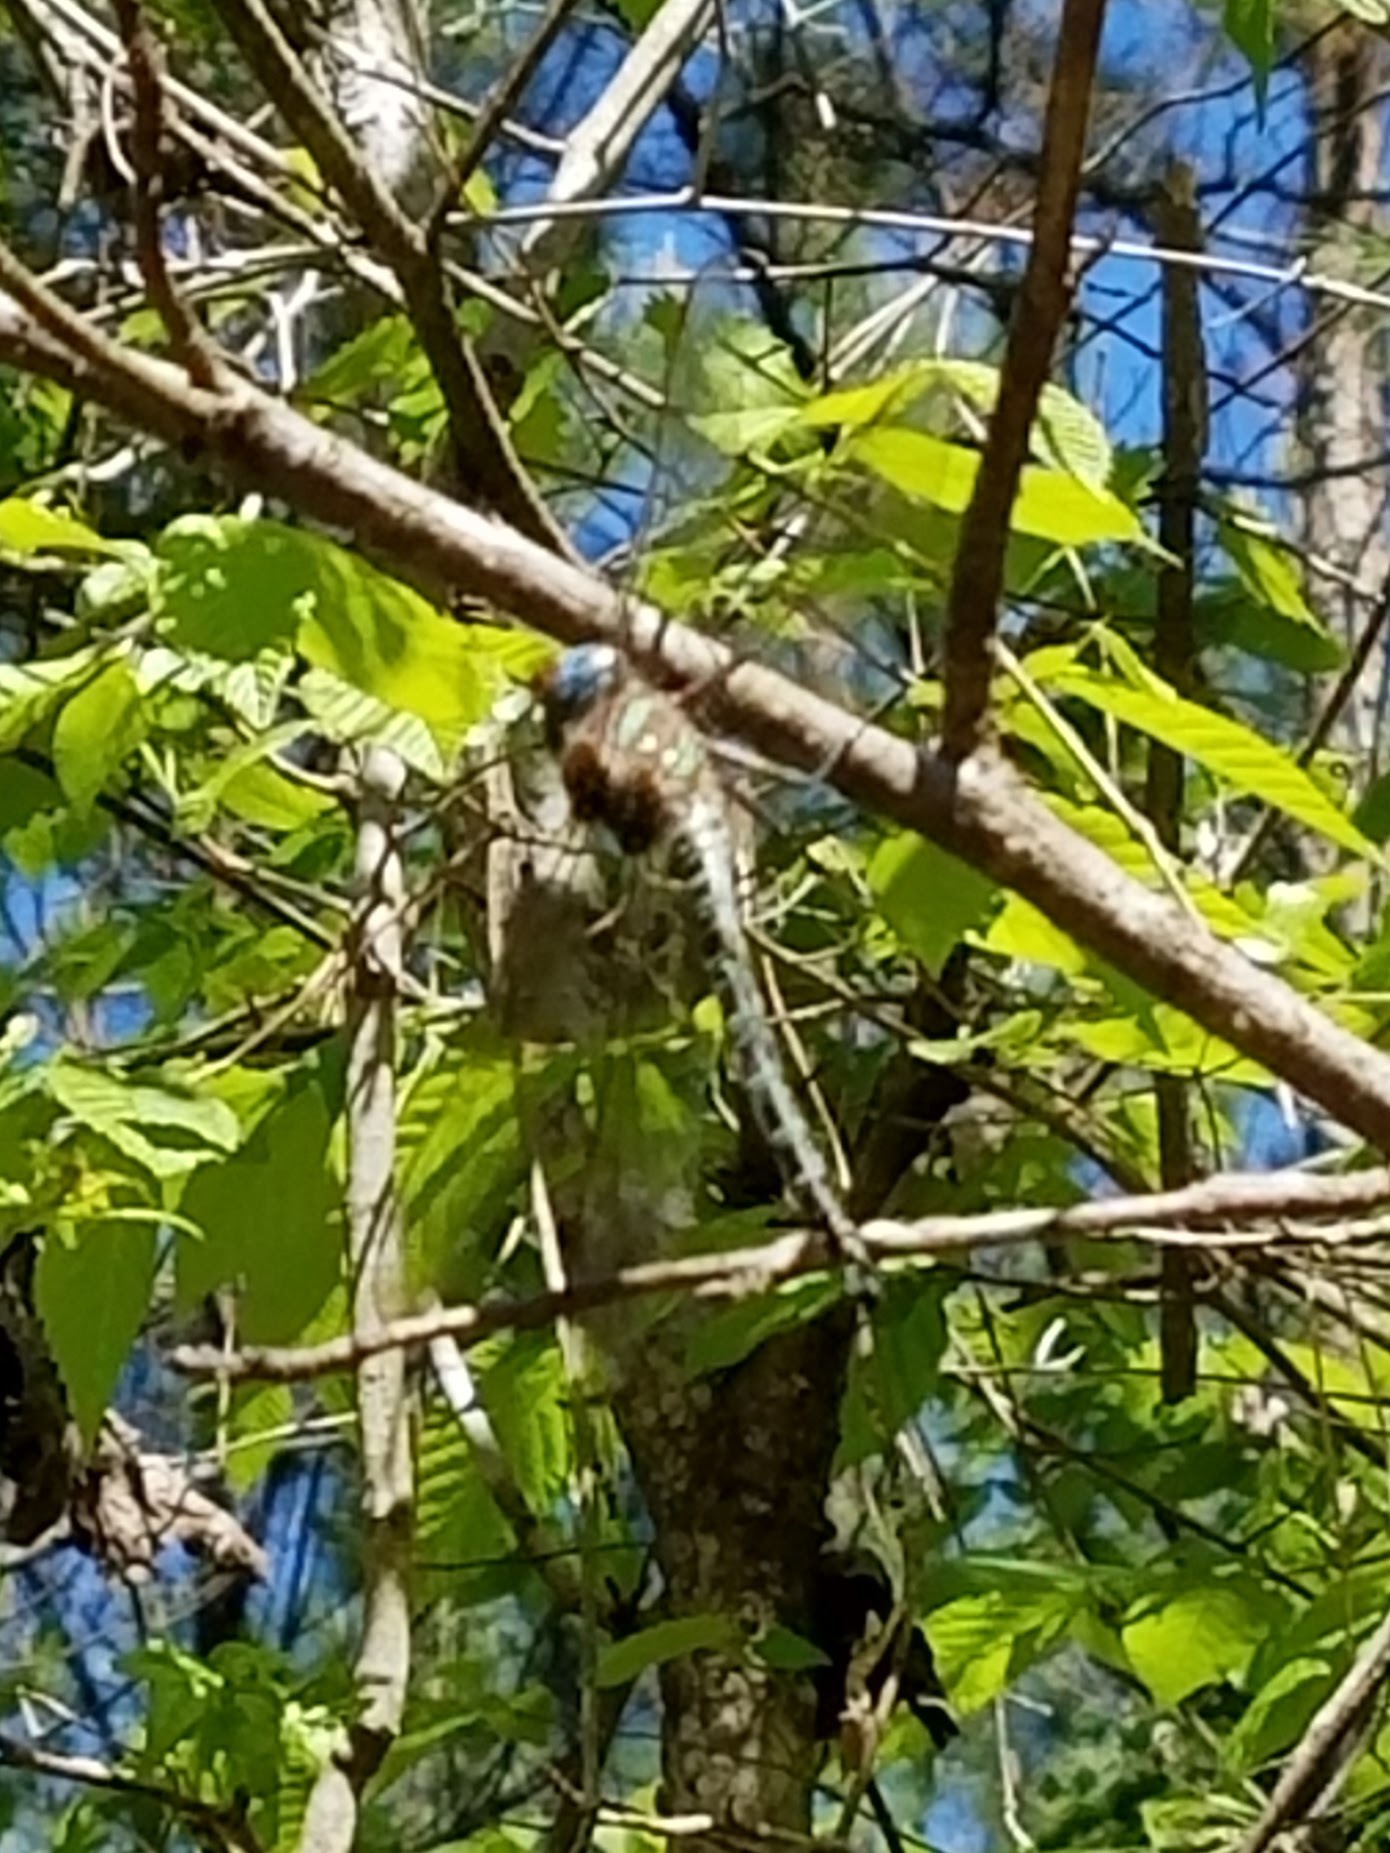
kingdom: Animalia
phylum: Arthropoda
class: Insecta
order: Odonata
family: Aeshnidae
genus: Epiaeschna
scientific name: Epiaeschna heros
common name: Swamp darner
